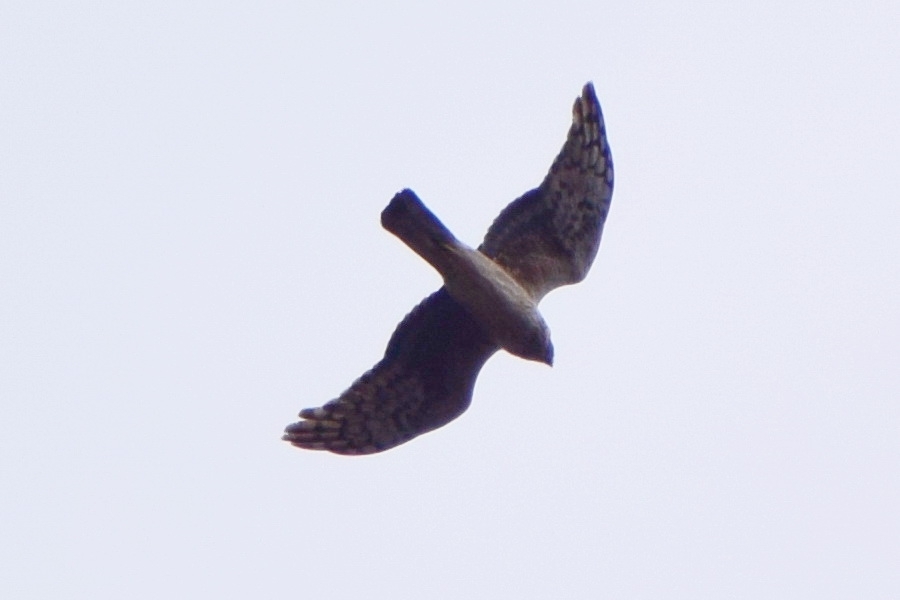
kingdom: Animalia
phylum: Chordata
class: Aves
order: Accipitriformes
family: Accipitridae
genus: Circus
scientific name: Circus cyaneus
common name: Hen harrier
